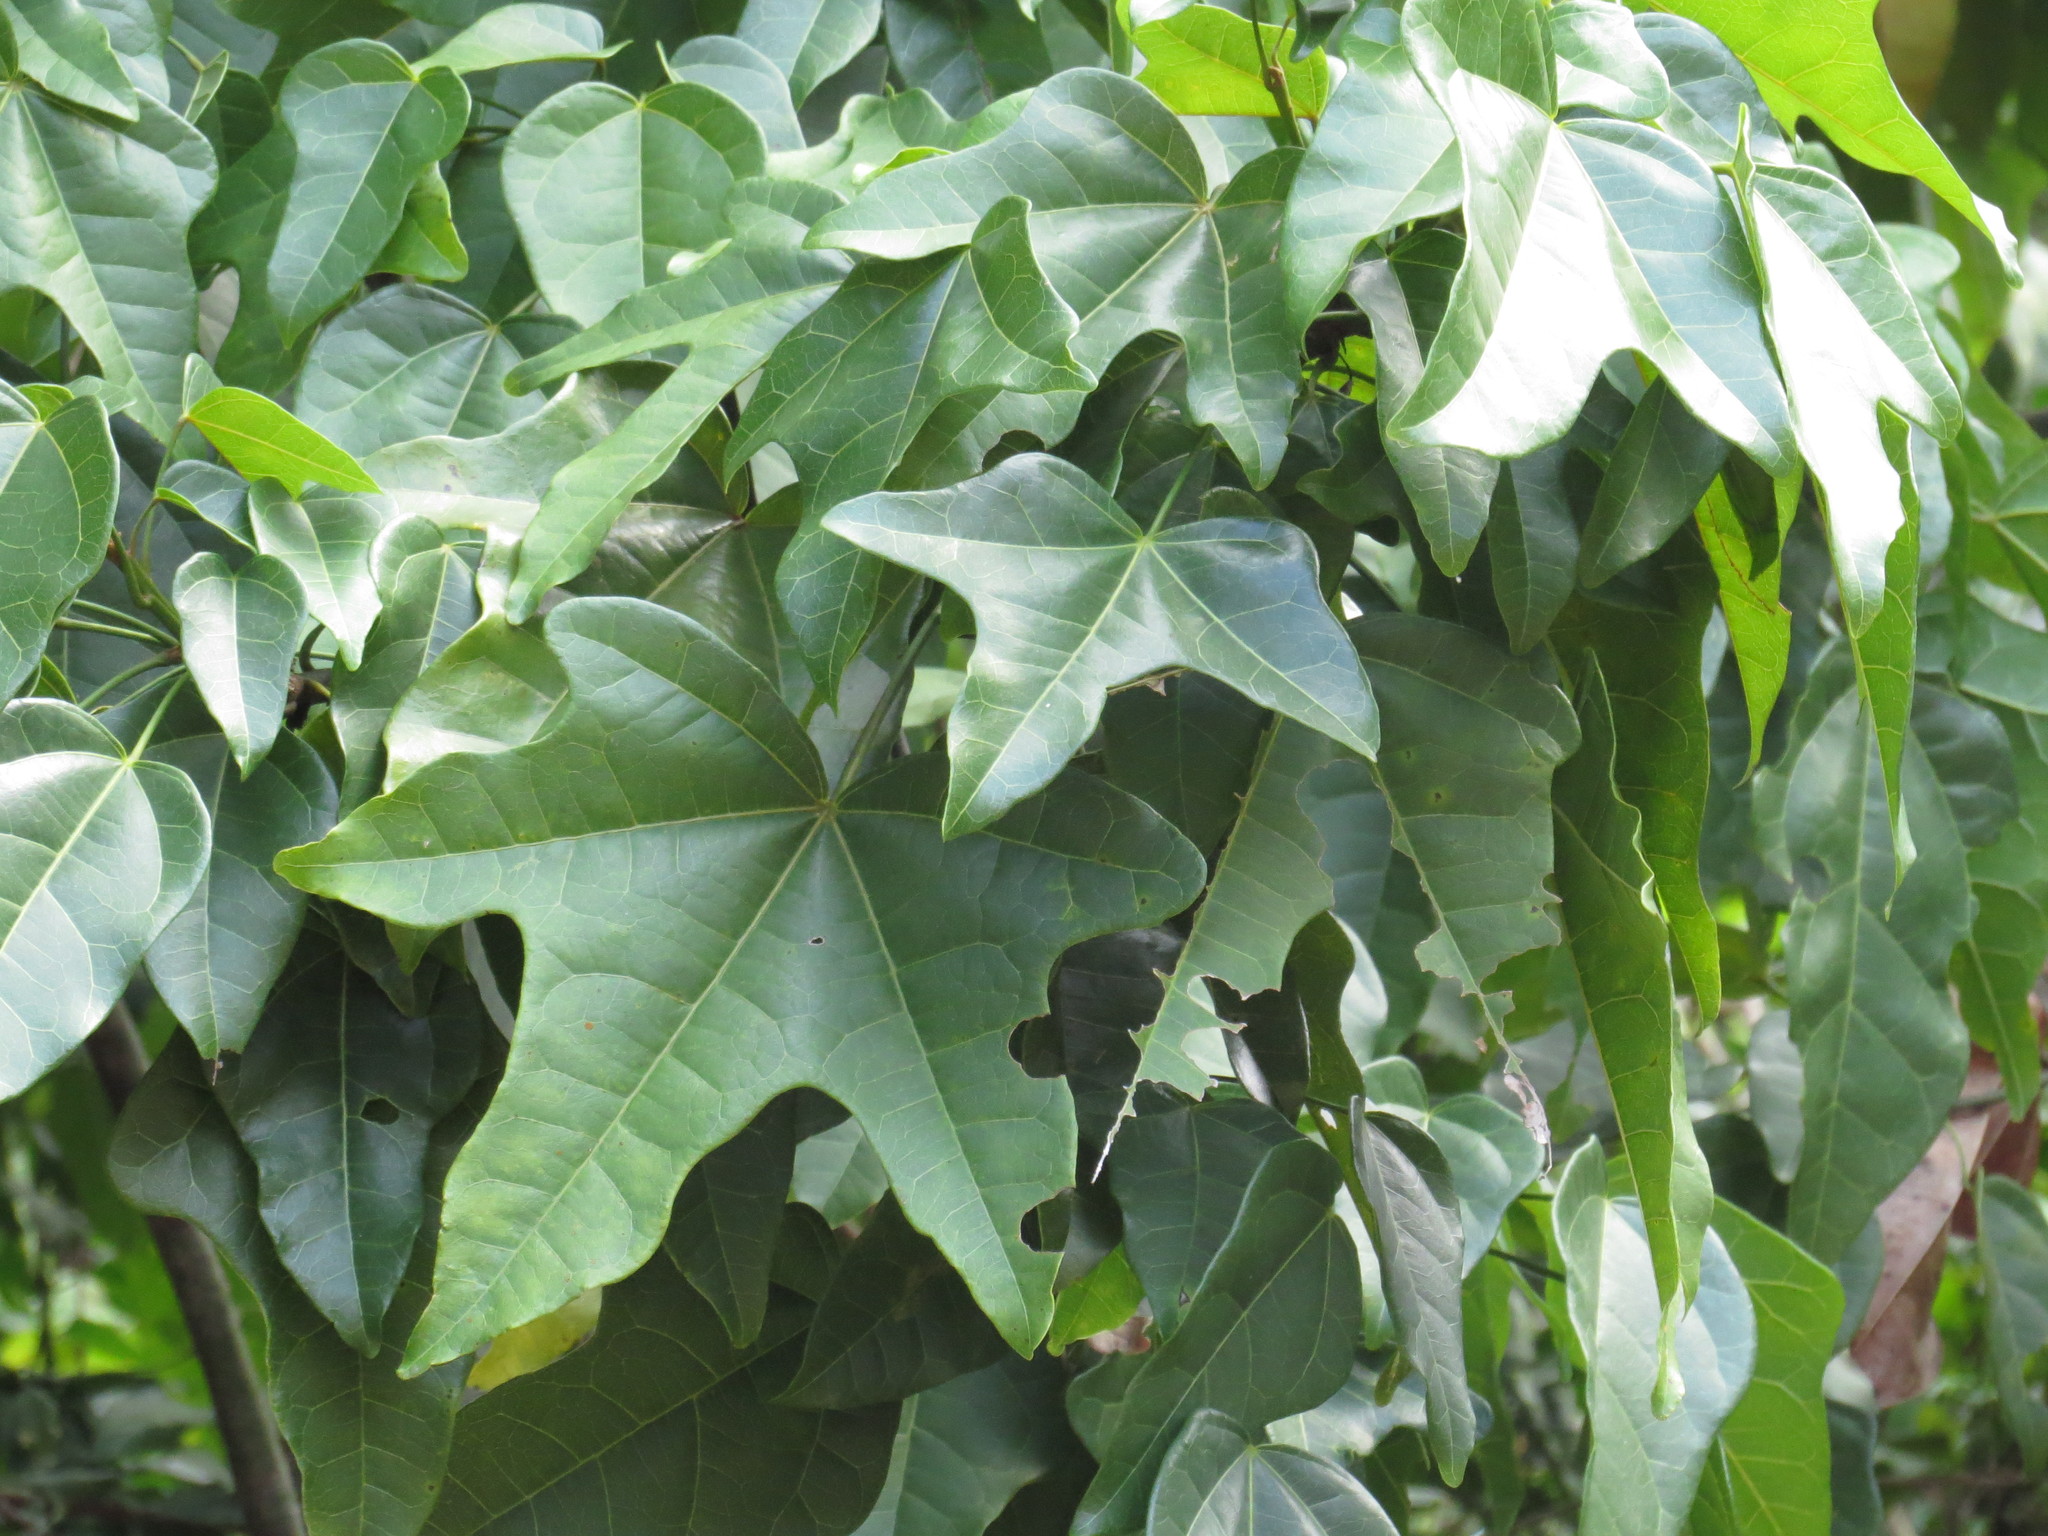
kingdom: Plantae
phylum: Tracheophyta
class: Magnoliopsida
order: Malvales
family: Malvaceae
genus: Brachychiton
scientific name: Brachychiton acerifolius
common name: Illawarra flame tree
